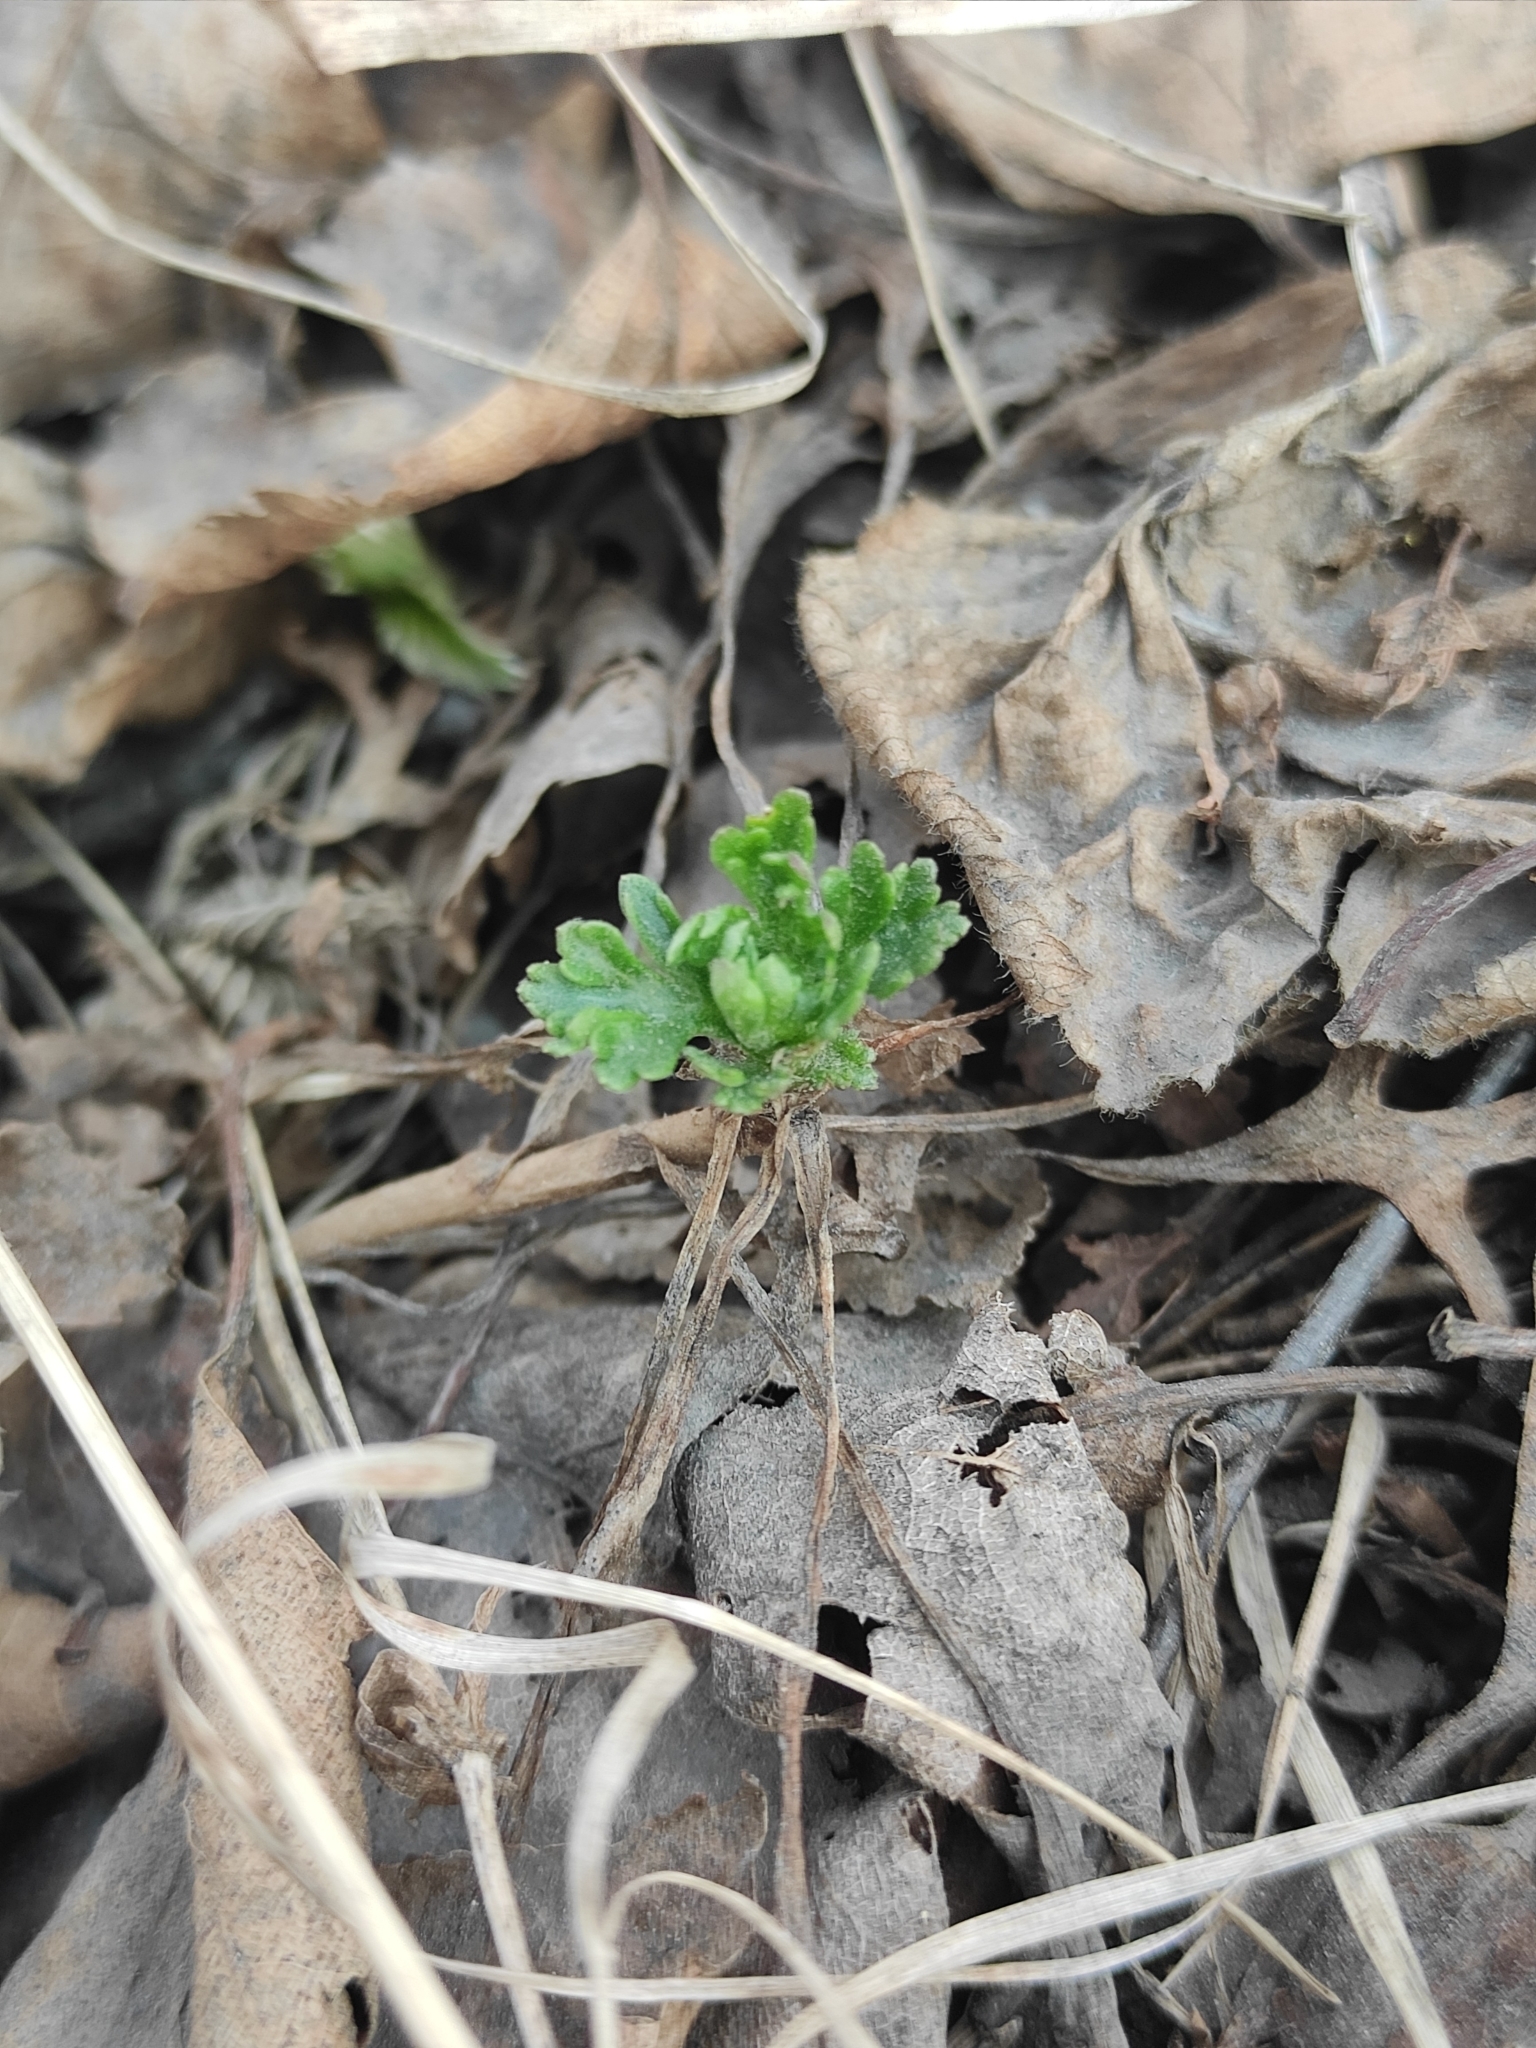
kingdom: Plantae
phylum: Tracheophyta
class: Magnoliopsida
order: Asterales
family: Asteraceae
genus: Chrysanthemum
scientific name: Chrysanthemum zawadzkii
